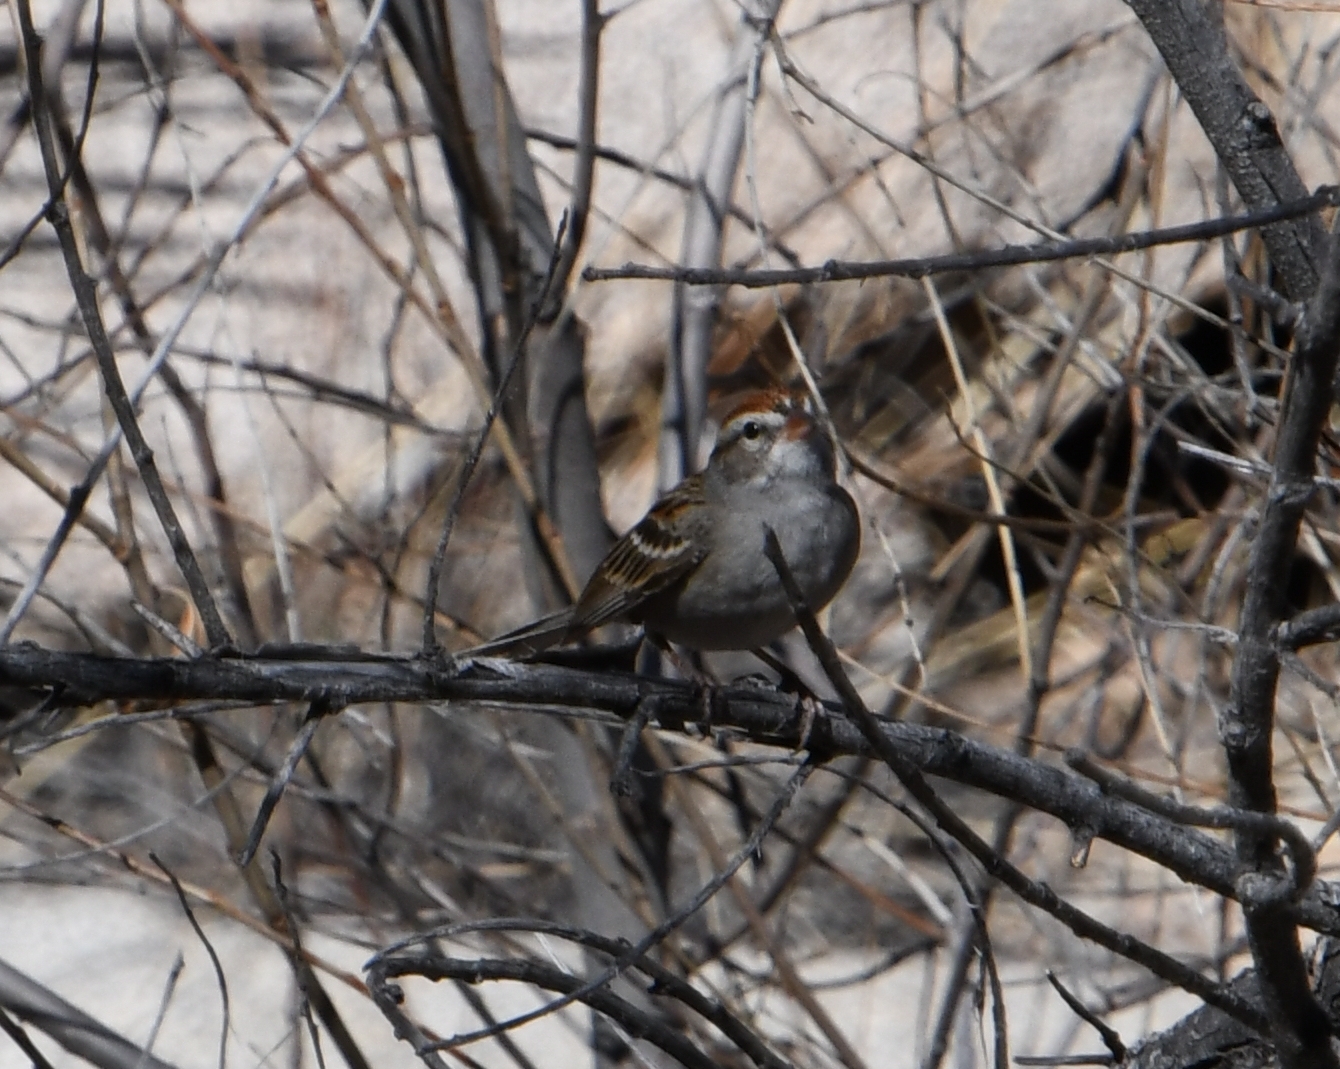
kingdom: Animalia
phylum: Chordata
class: Aves
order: Passeriformes
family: Passerellidae
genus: Spizella
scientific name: Spizella passerina
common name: Chipping sparrow
